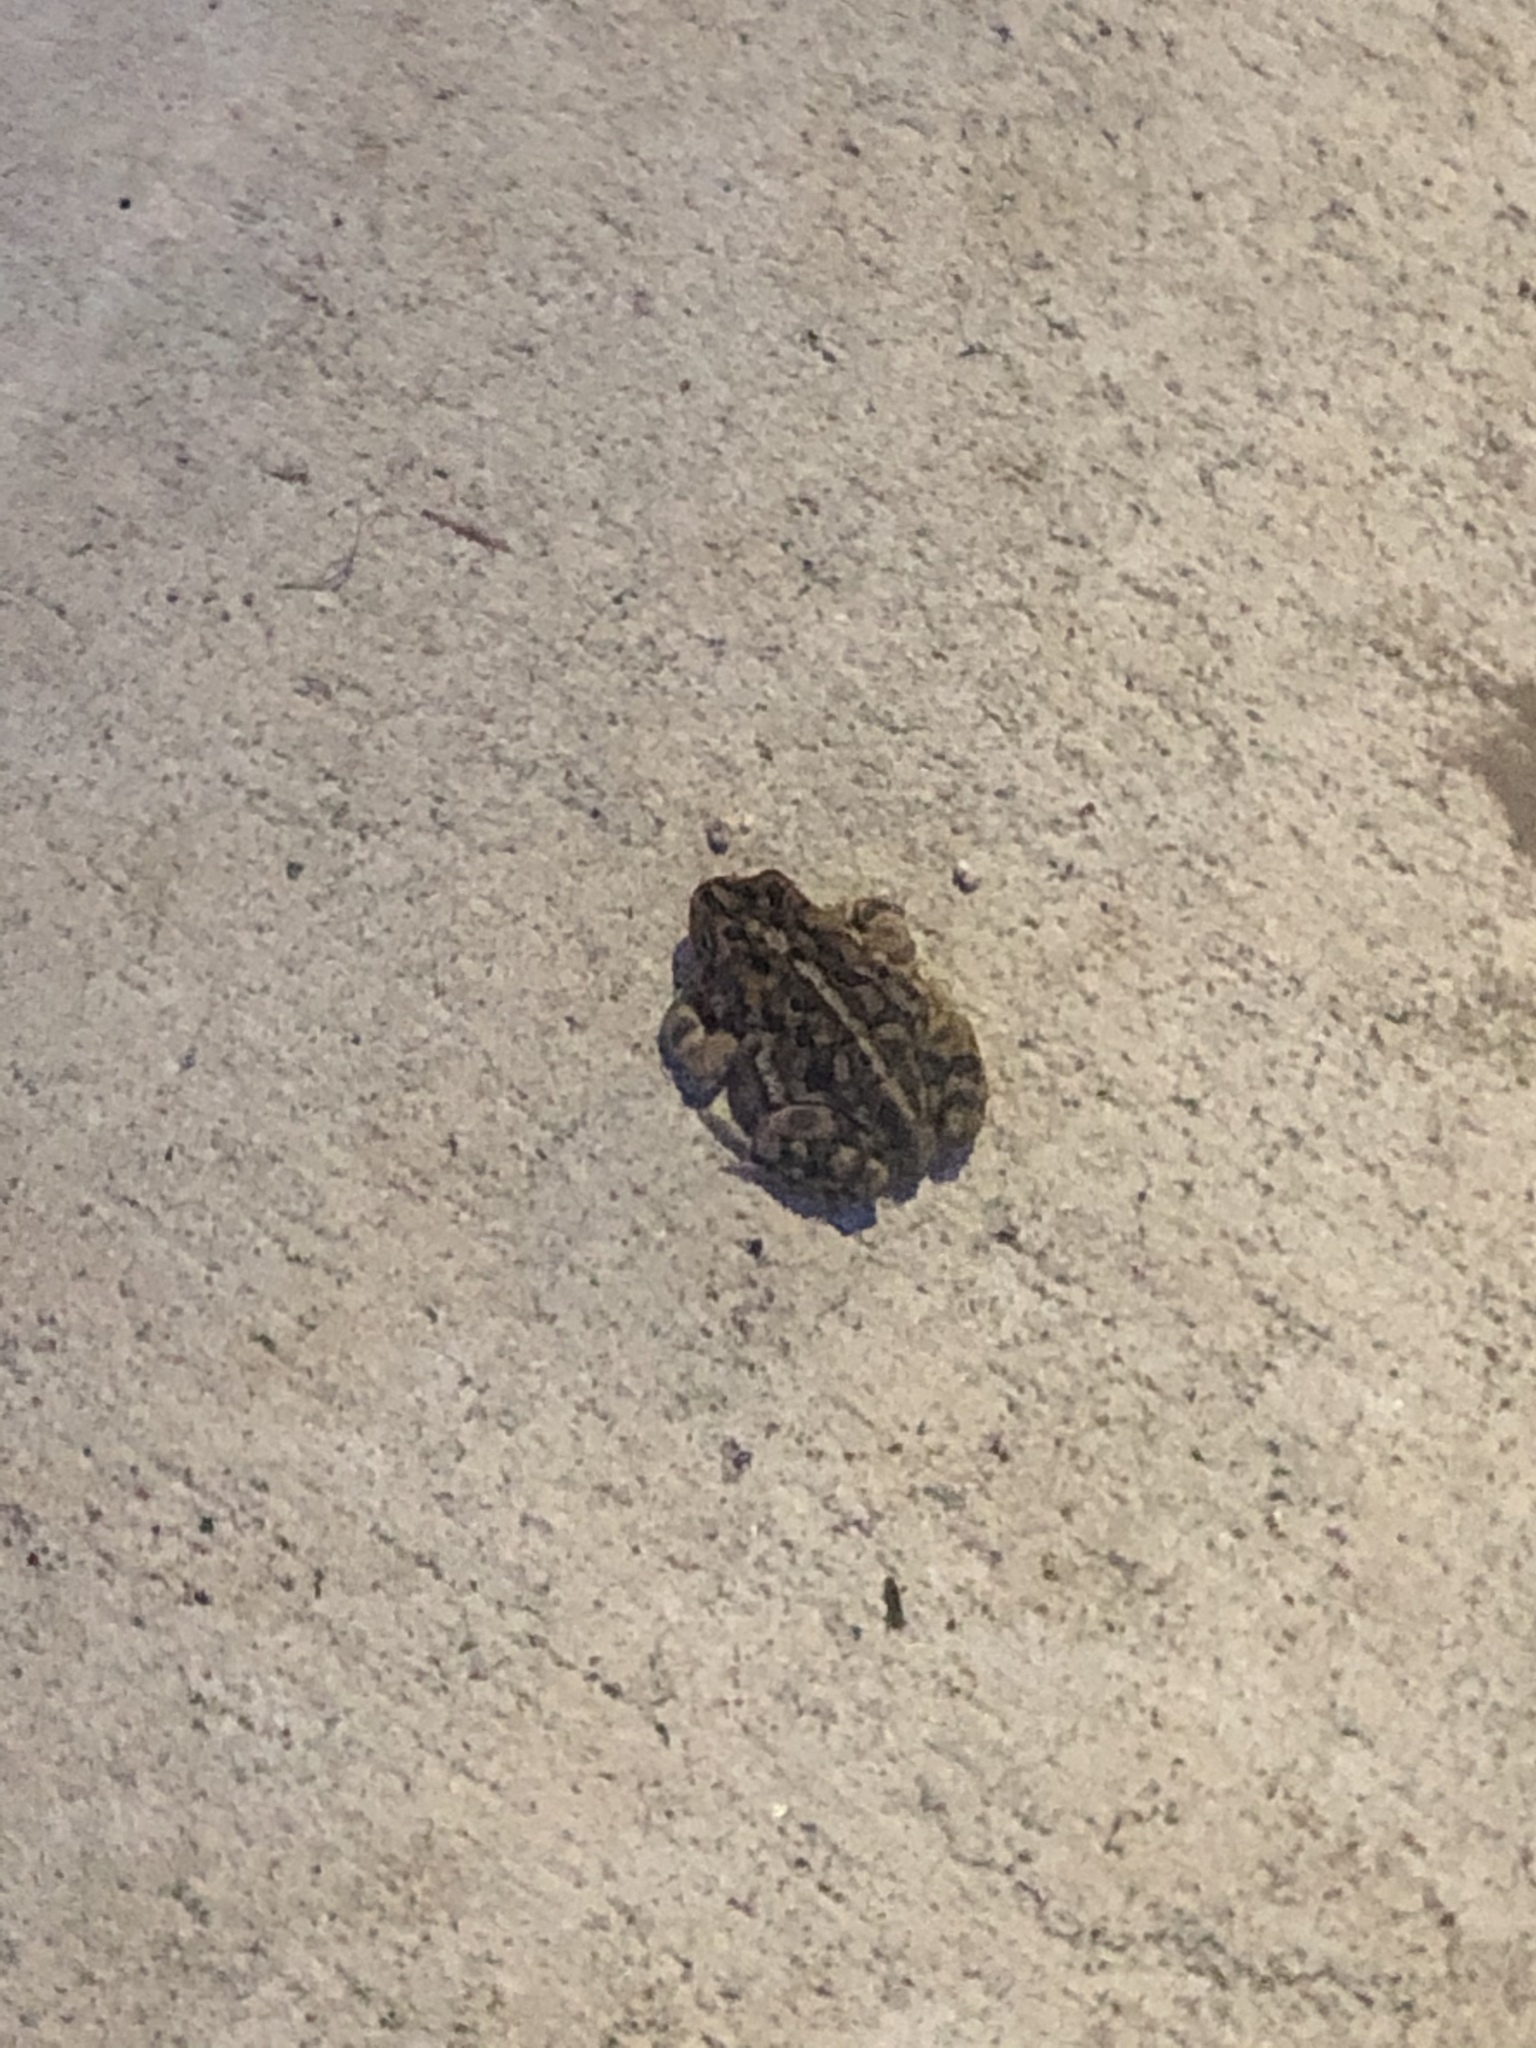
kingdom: Animalia
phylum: Chordata
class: Amphibia
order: Anura
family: Bufonidae
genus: Anaxyrus
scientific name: Anaxyrus terrestris
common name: Southern toad
